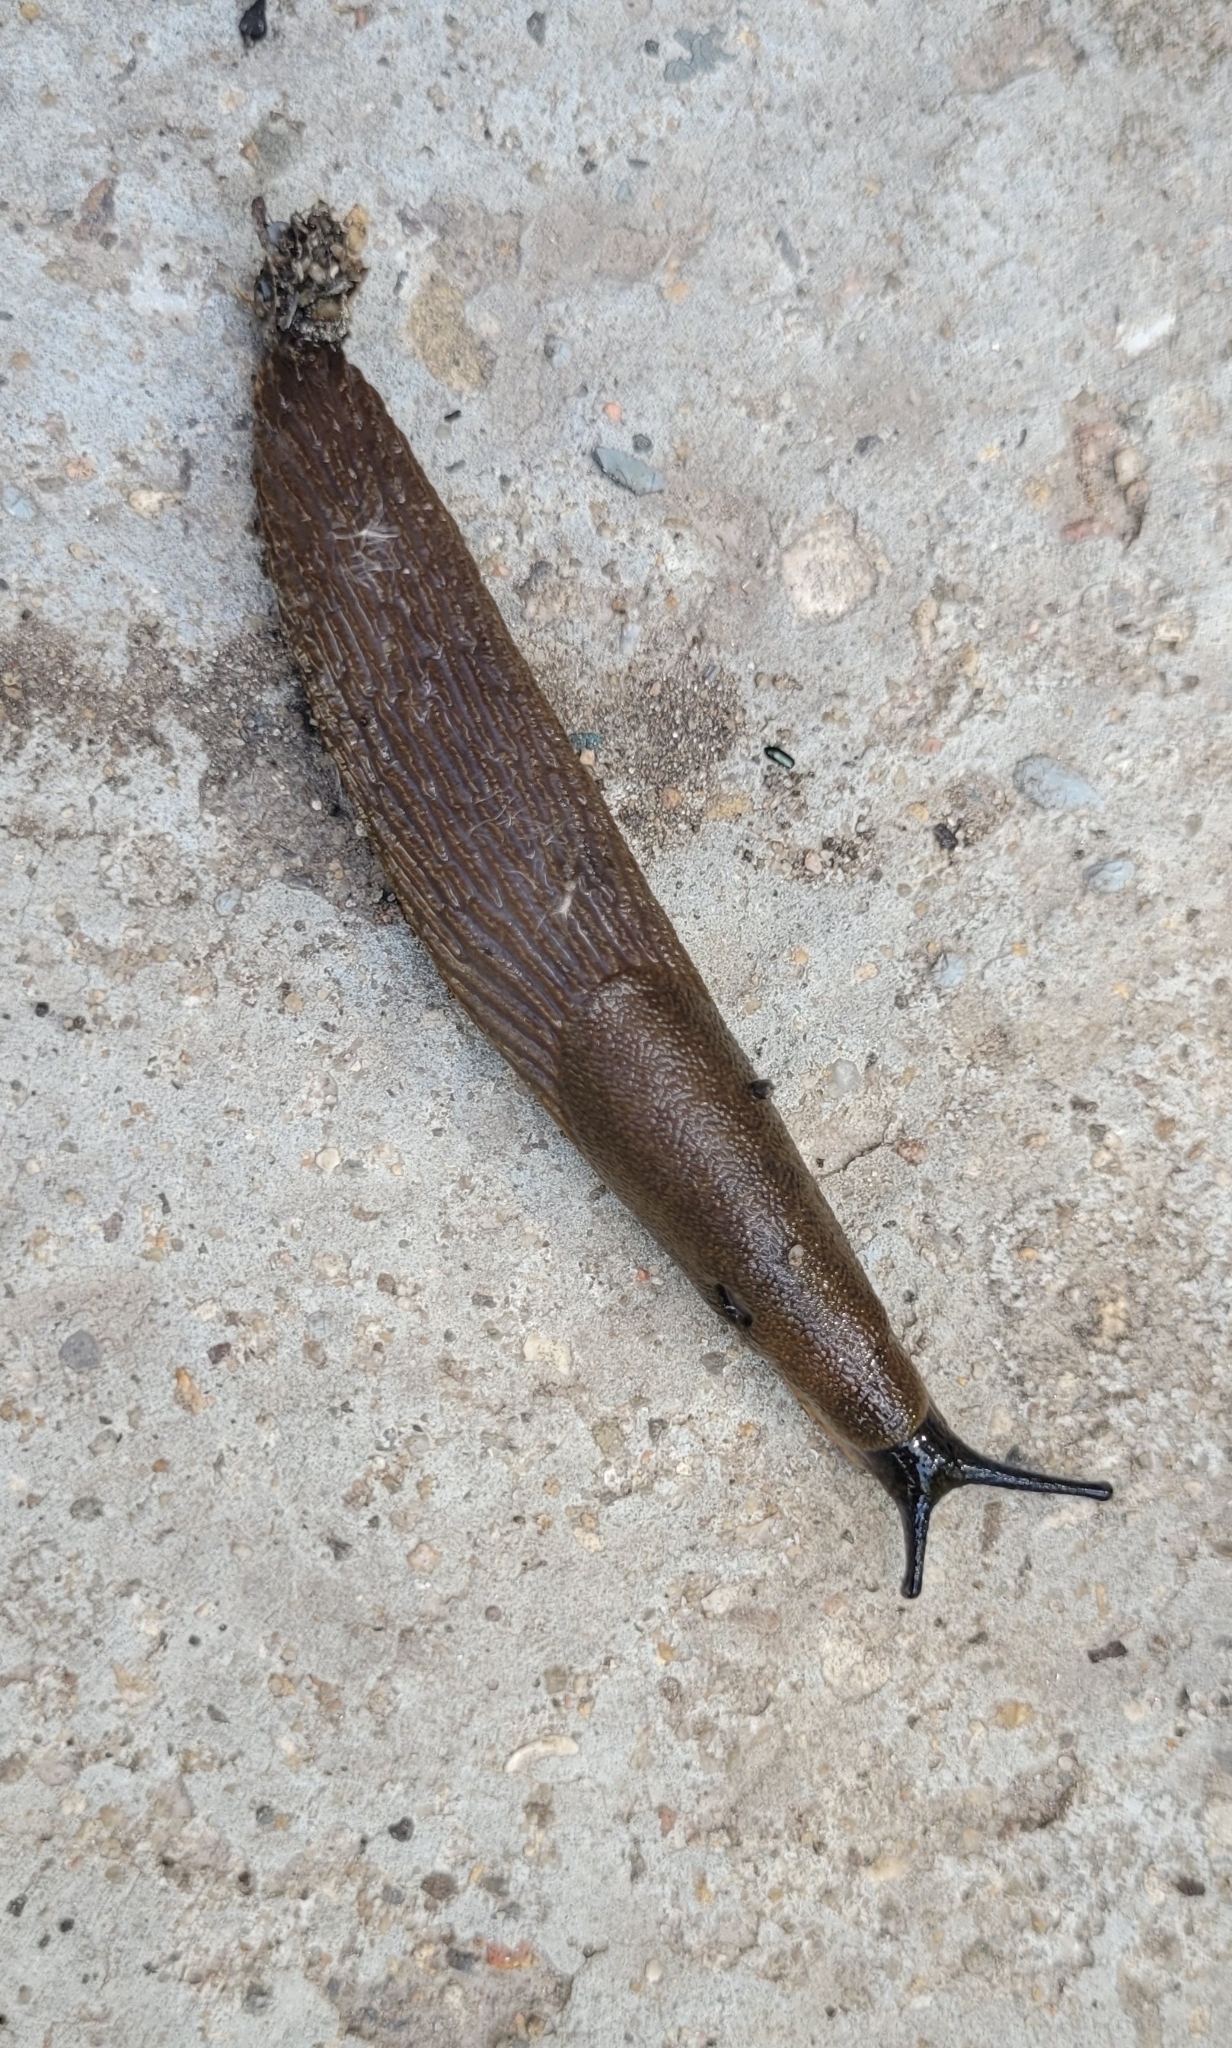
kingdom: Animalia
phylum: Mollusca
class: Gastropoda
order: Stylommatophora
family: Arionidae
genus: Arion
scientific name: Arion
